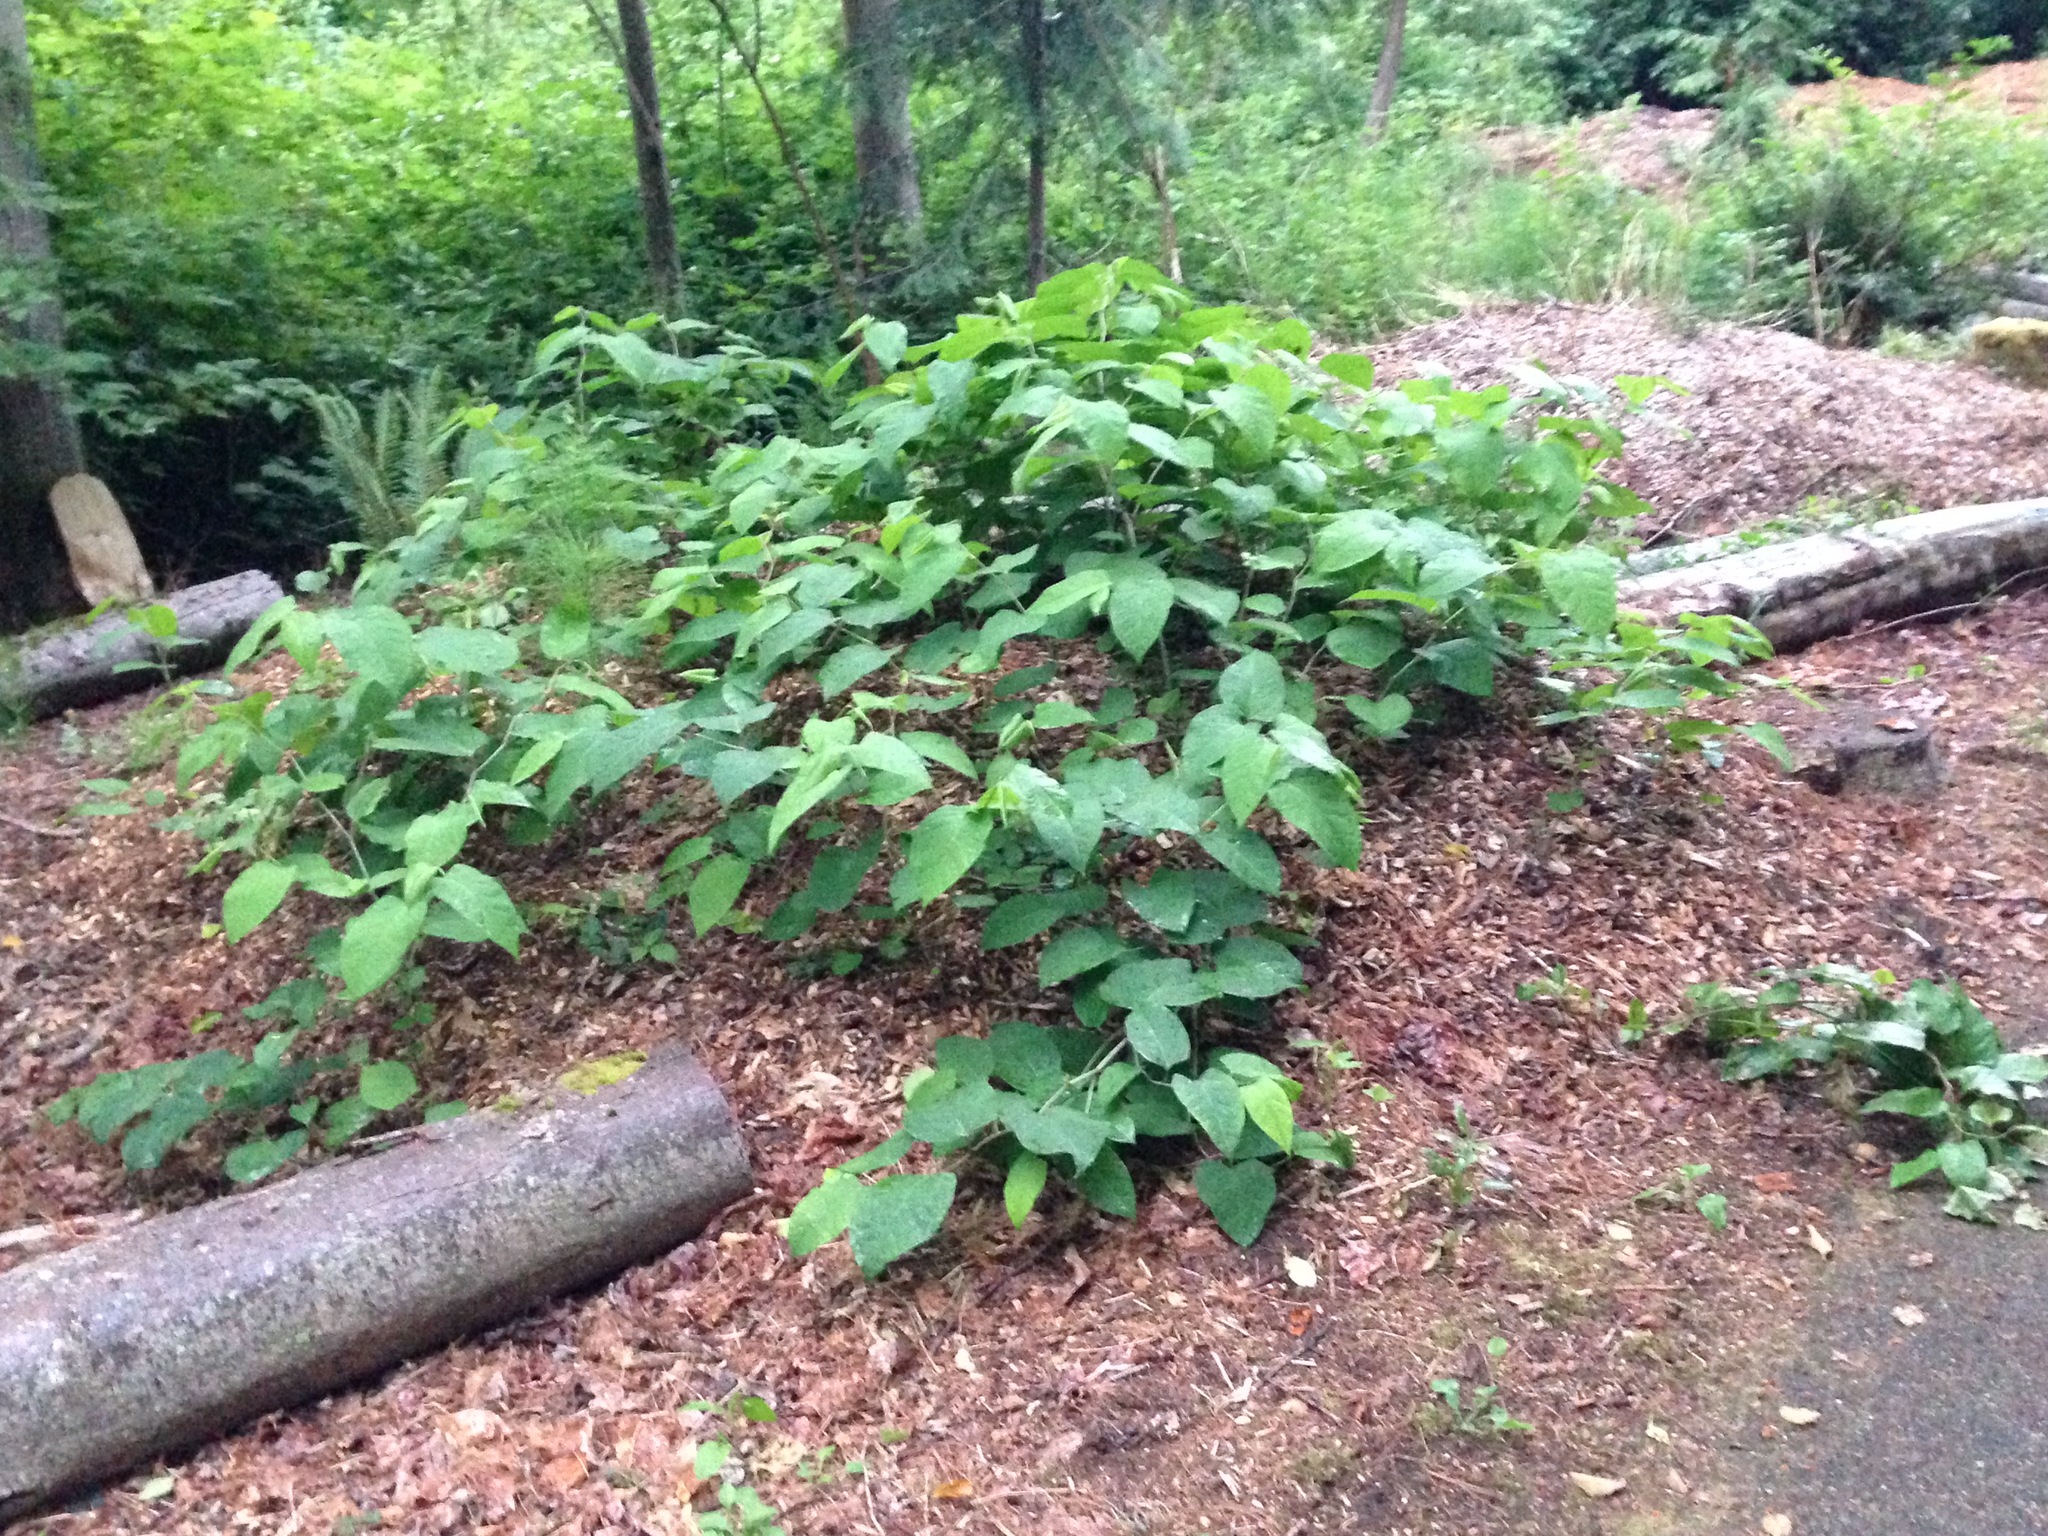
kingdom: Plantae
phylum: Tracheophyta
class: Magnoliopsida
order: Caryophyllales
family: Polygonaceae
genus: Reynoutria
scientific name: Reynoutria japonica
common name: Japanese knotweed
